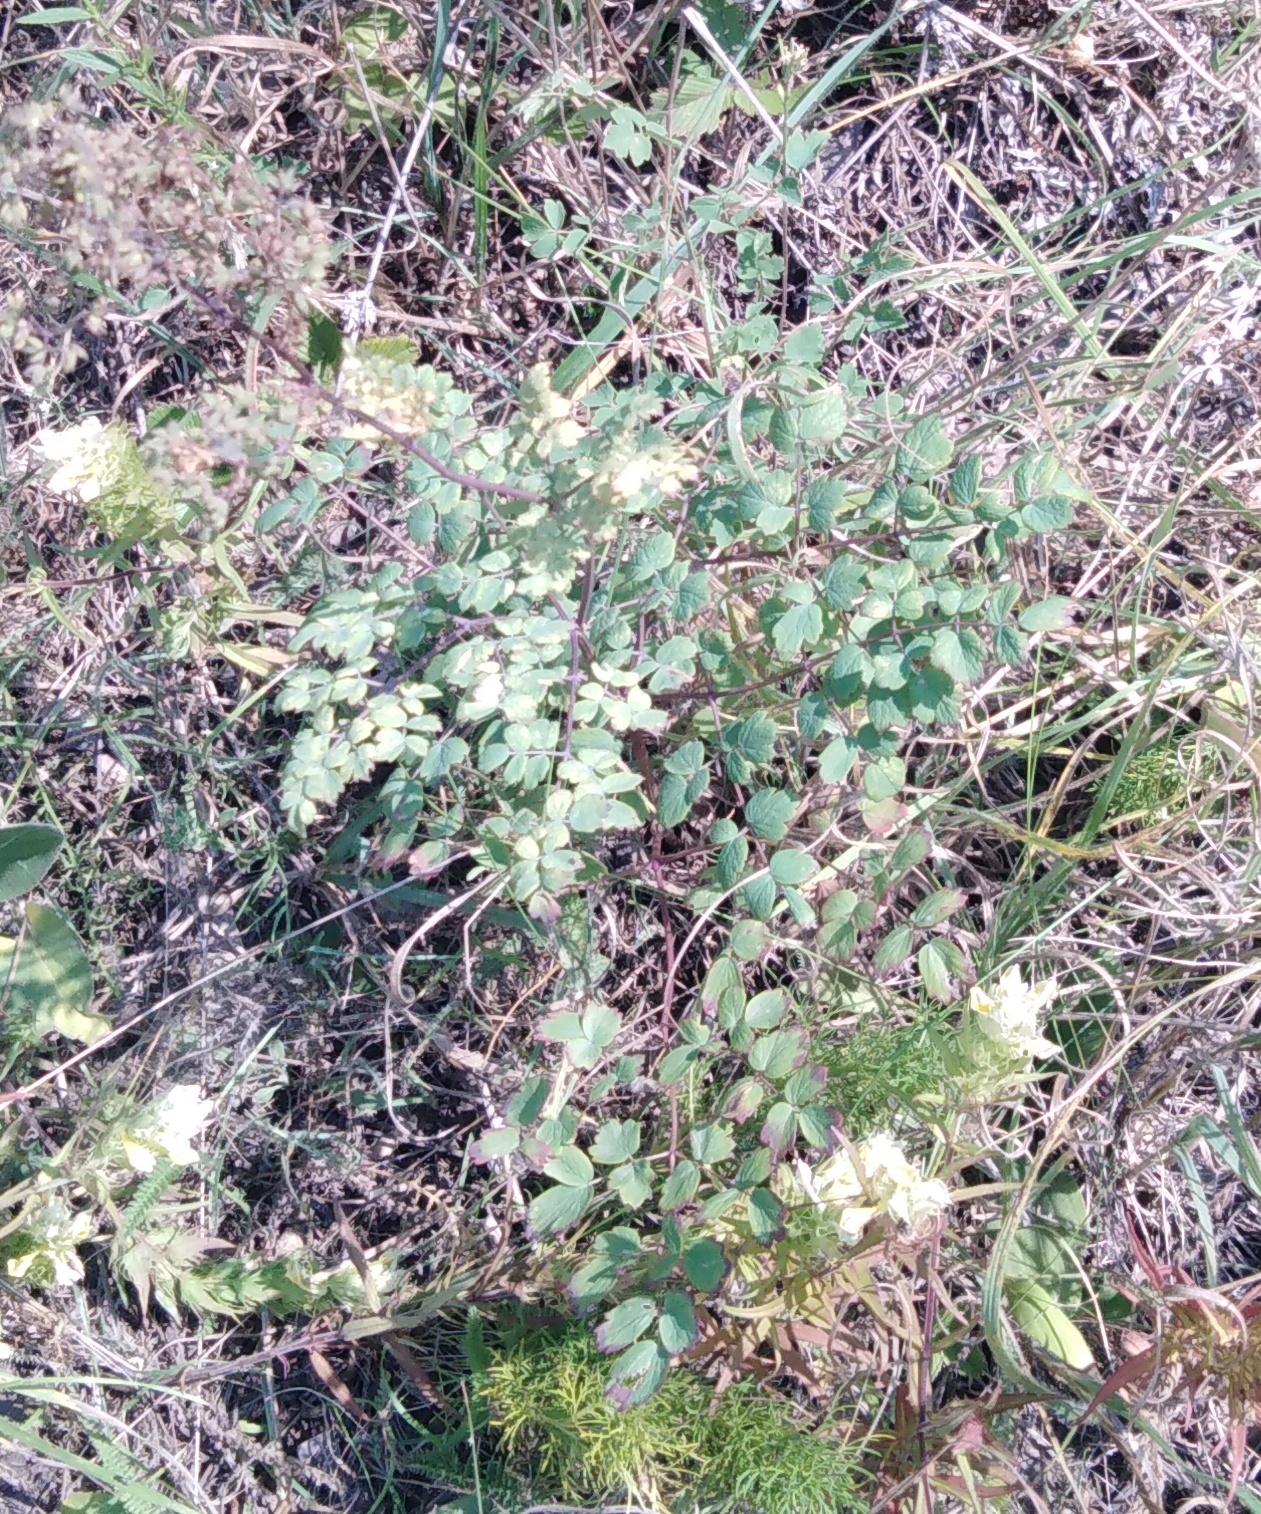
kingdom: Plantae
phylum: Tracheophyta
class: Magnoliopsida
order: Ranunculales
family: Ranunculaceae
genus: Thalictrum
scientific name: Thalictrum minus
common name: Lesser meadow-rue
